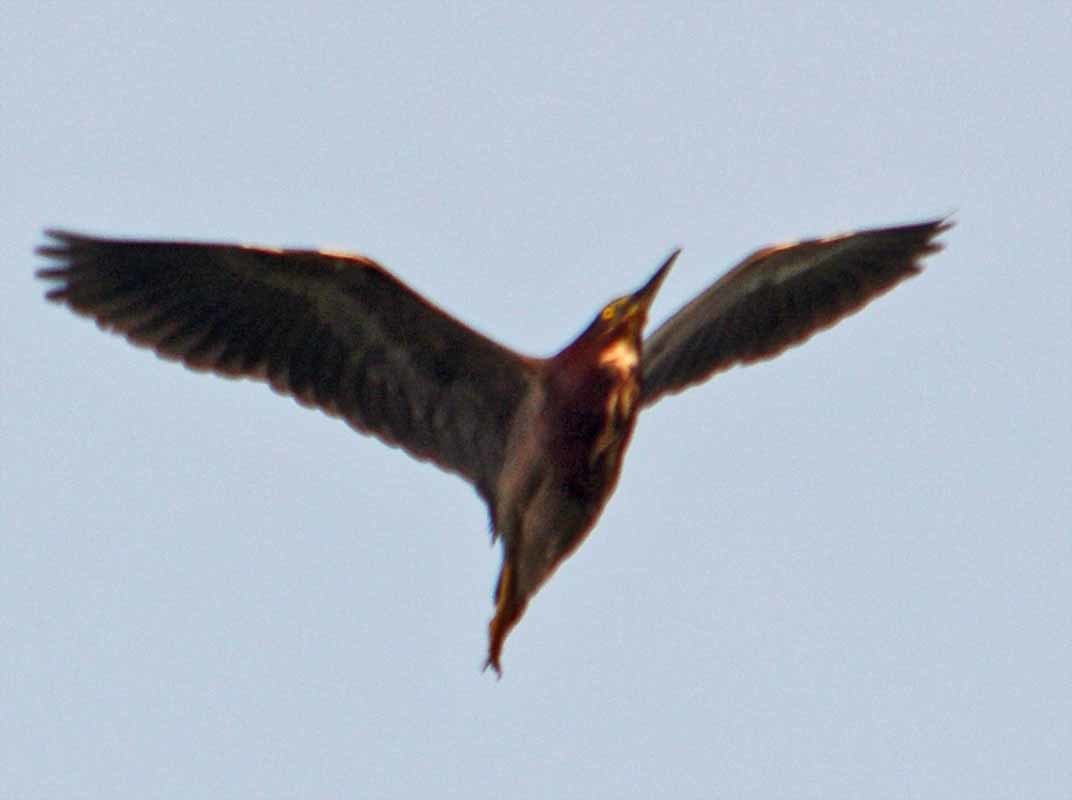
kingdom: Animalia
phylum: Chordata
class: Aves
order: Pelecaniformes
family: Ardeidae
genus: Butorides
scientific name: Butorides virescens
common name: Green heron
